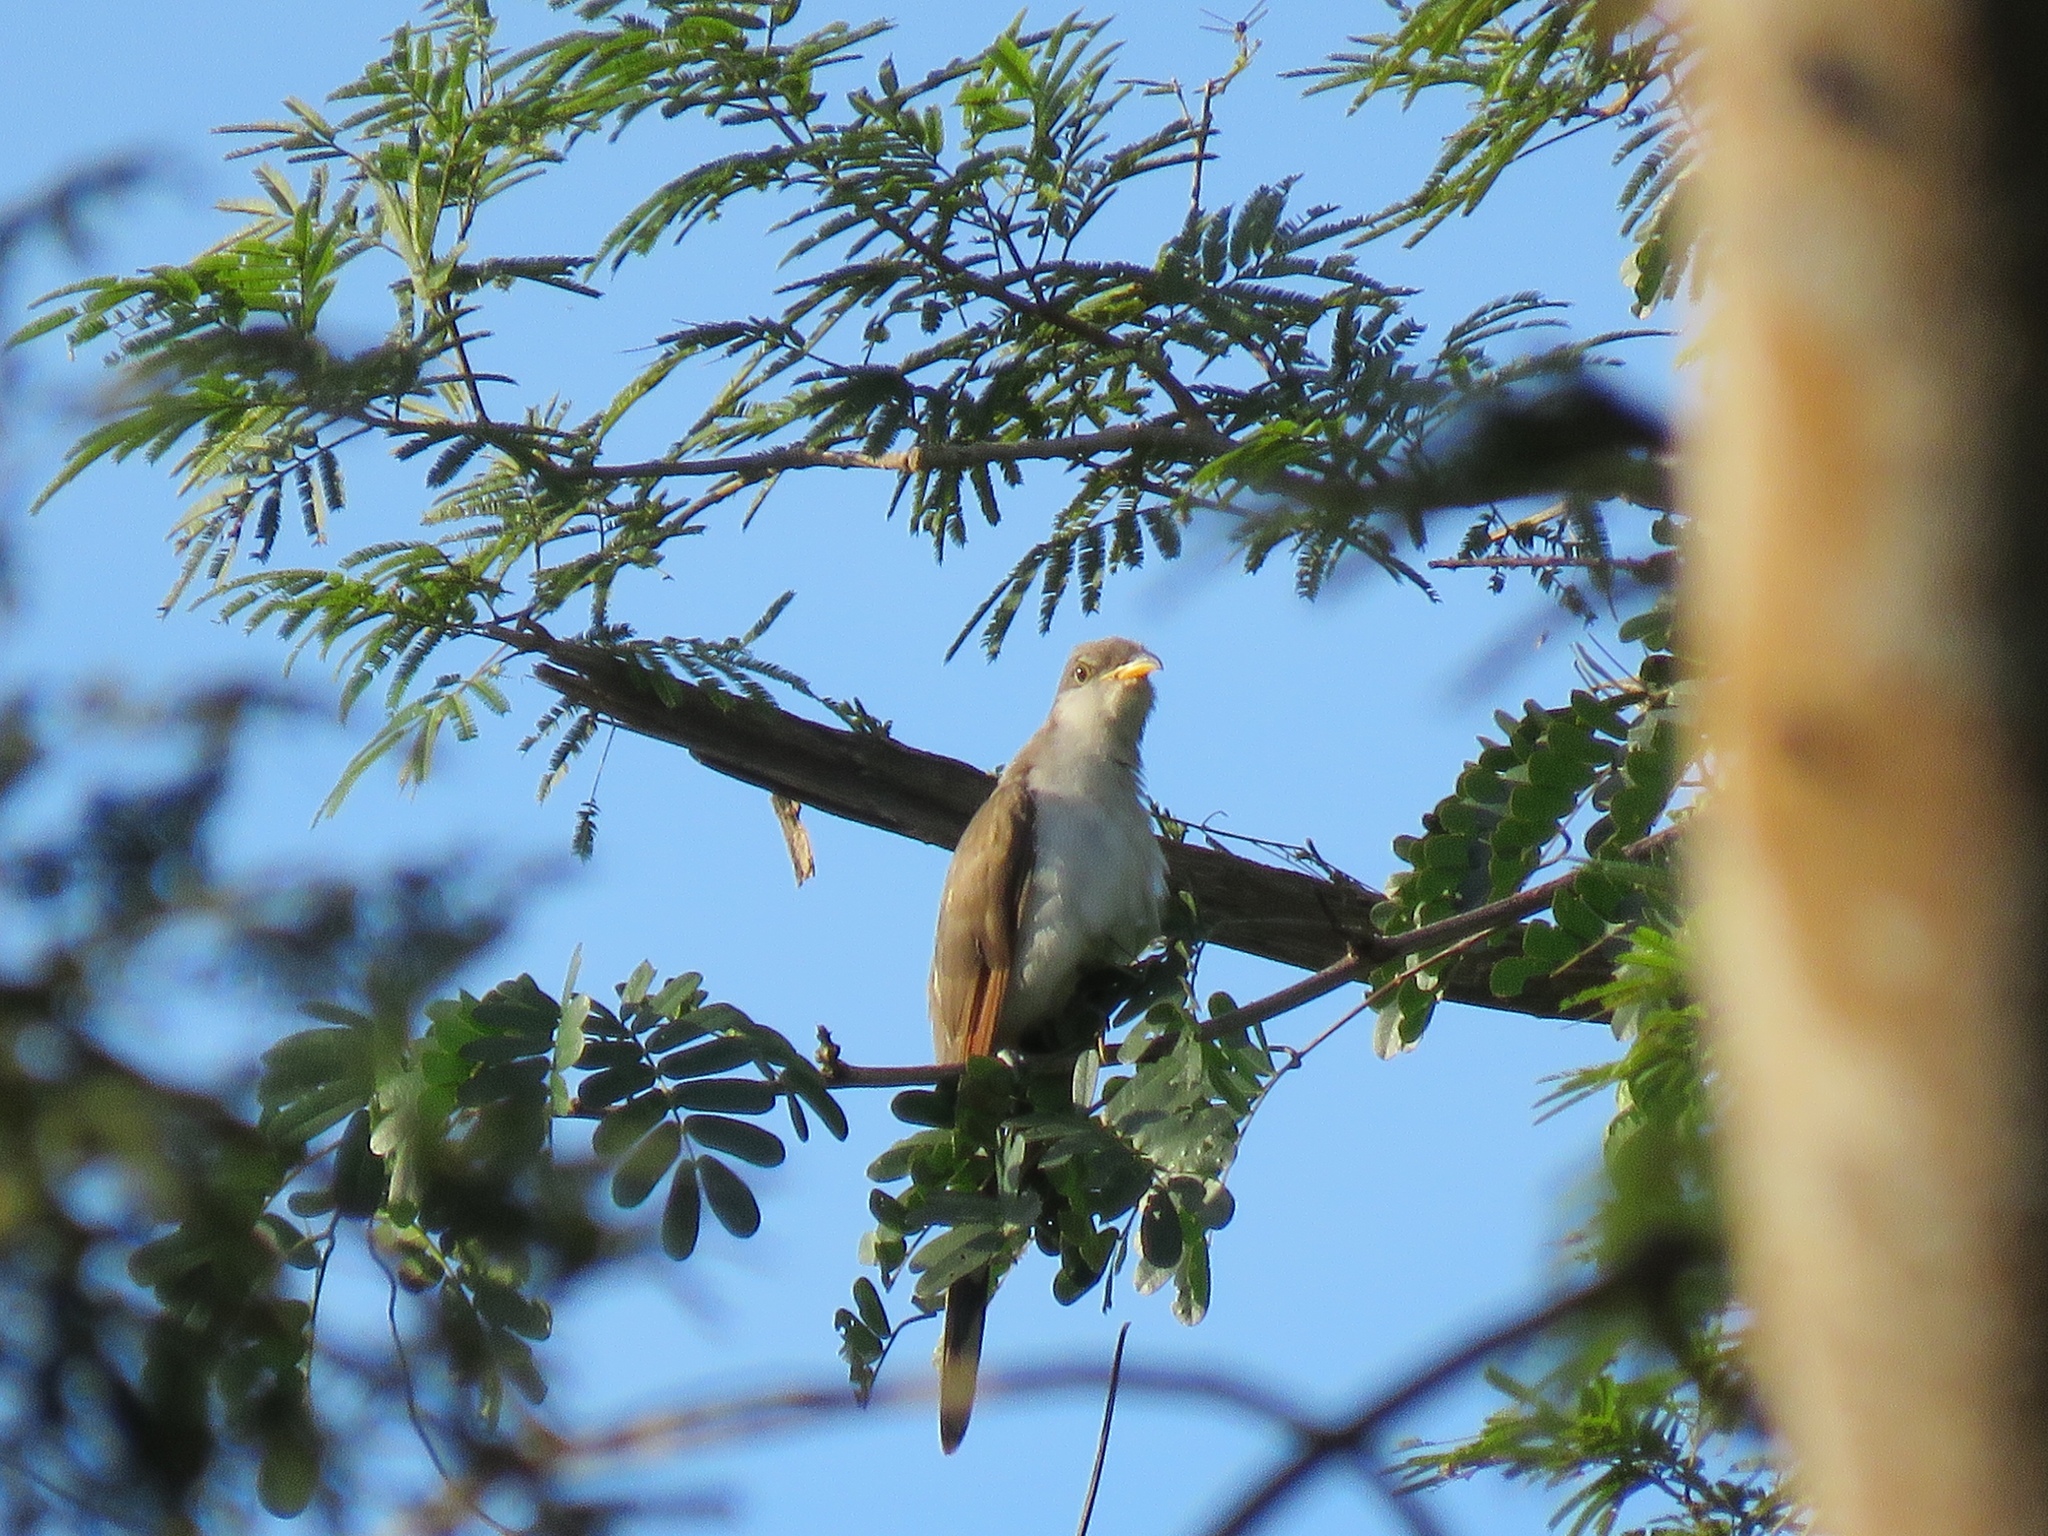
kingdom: Animalia
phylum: Chordata
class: Aves
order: Cuculiformes
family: Cuculidae
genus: Coccyzus
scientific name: Coccyzus americanus
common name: Yellow-billed cuckoo
